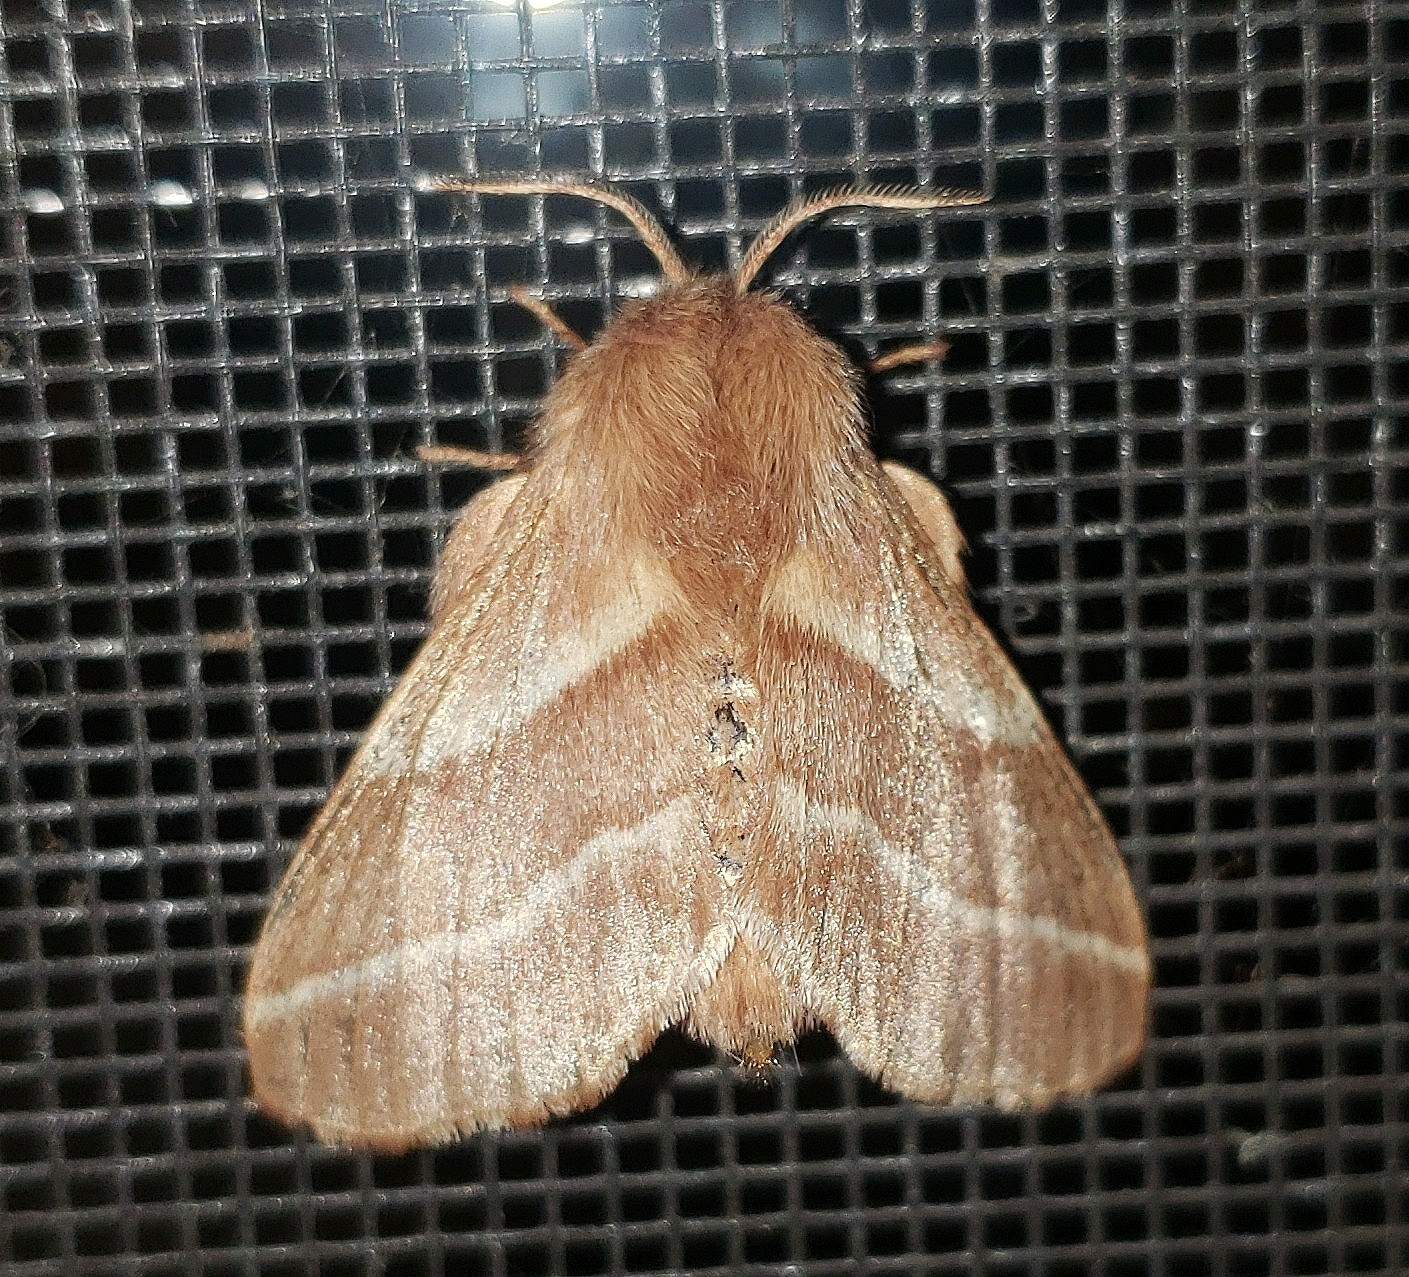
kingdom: Animalia
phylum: Arthropoda
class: Insecta
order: Lepidoptera
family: Lasiocampidae
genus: Malacosoma
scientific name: Malacosoma americana
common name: Eastern tent caterpillar moth
